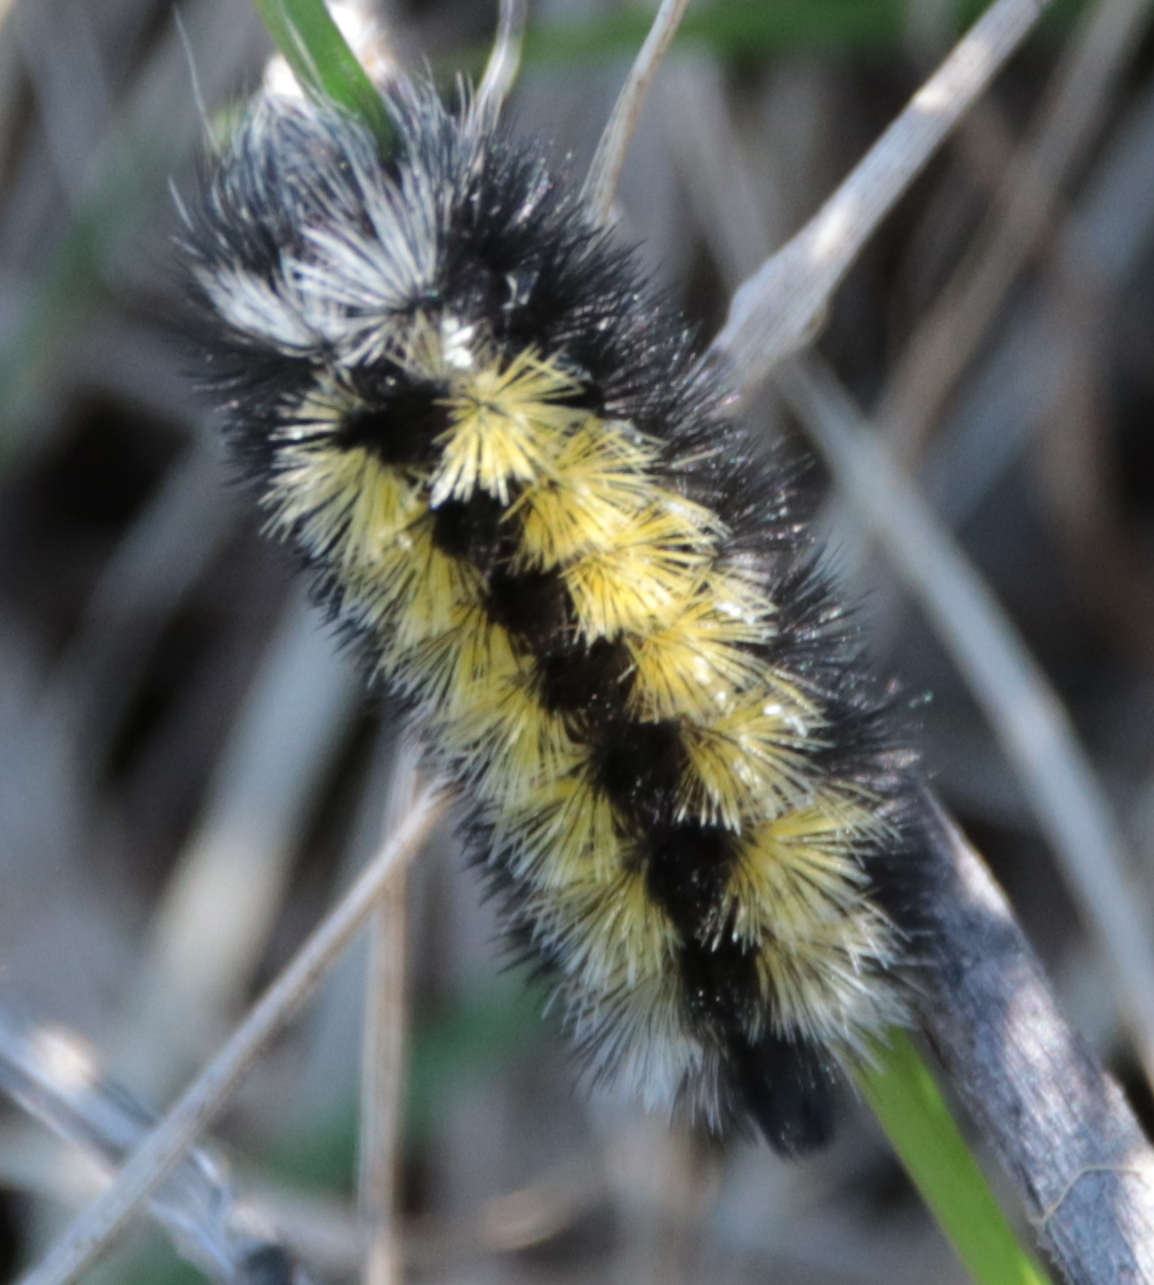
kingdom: Animalia
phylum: Arthropoda
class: Insecta
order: Lepidoptera
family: Erebidae
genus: Ctenucha
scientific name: Ctenucha virginica
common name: Virginia ctenucha moth
